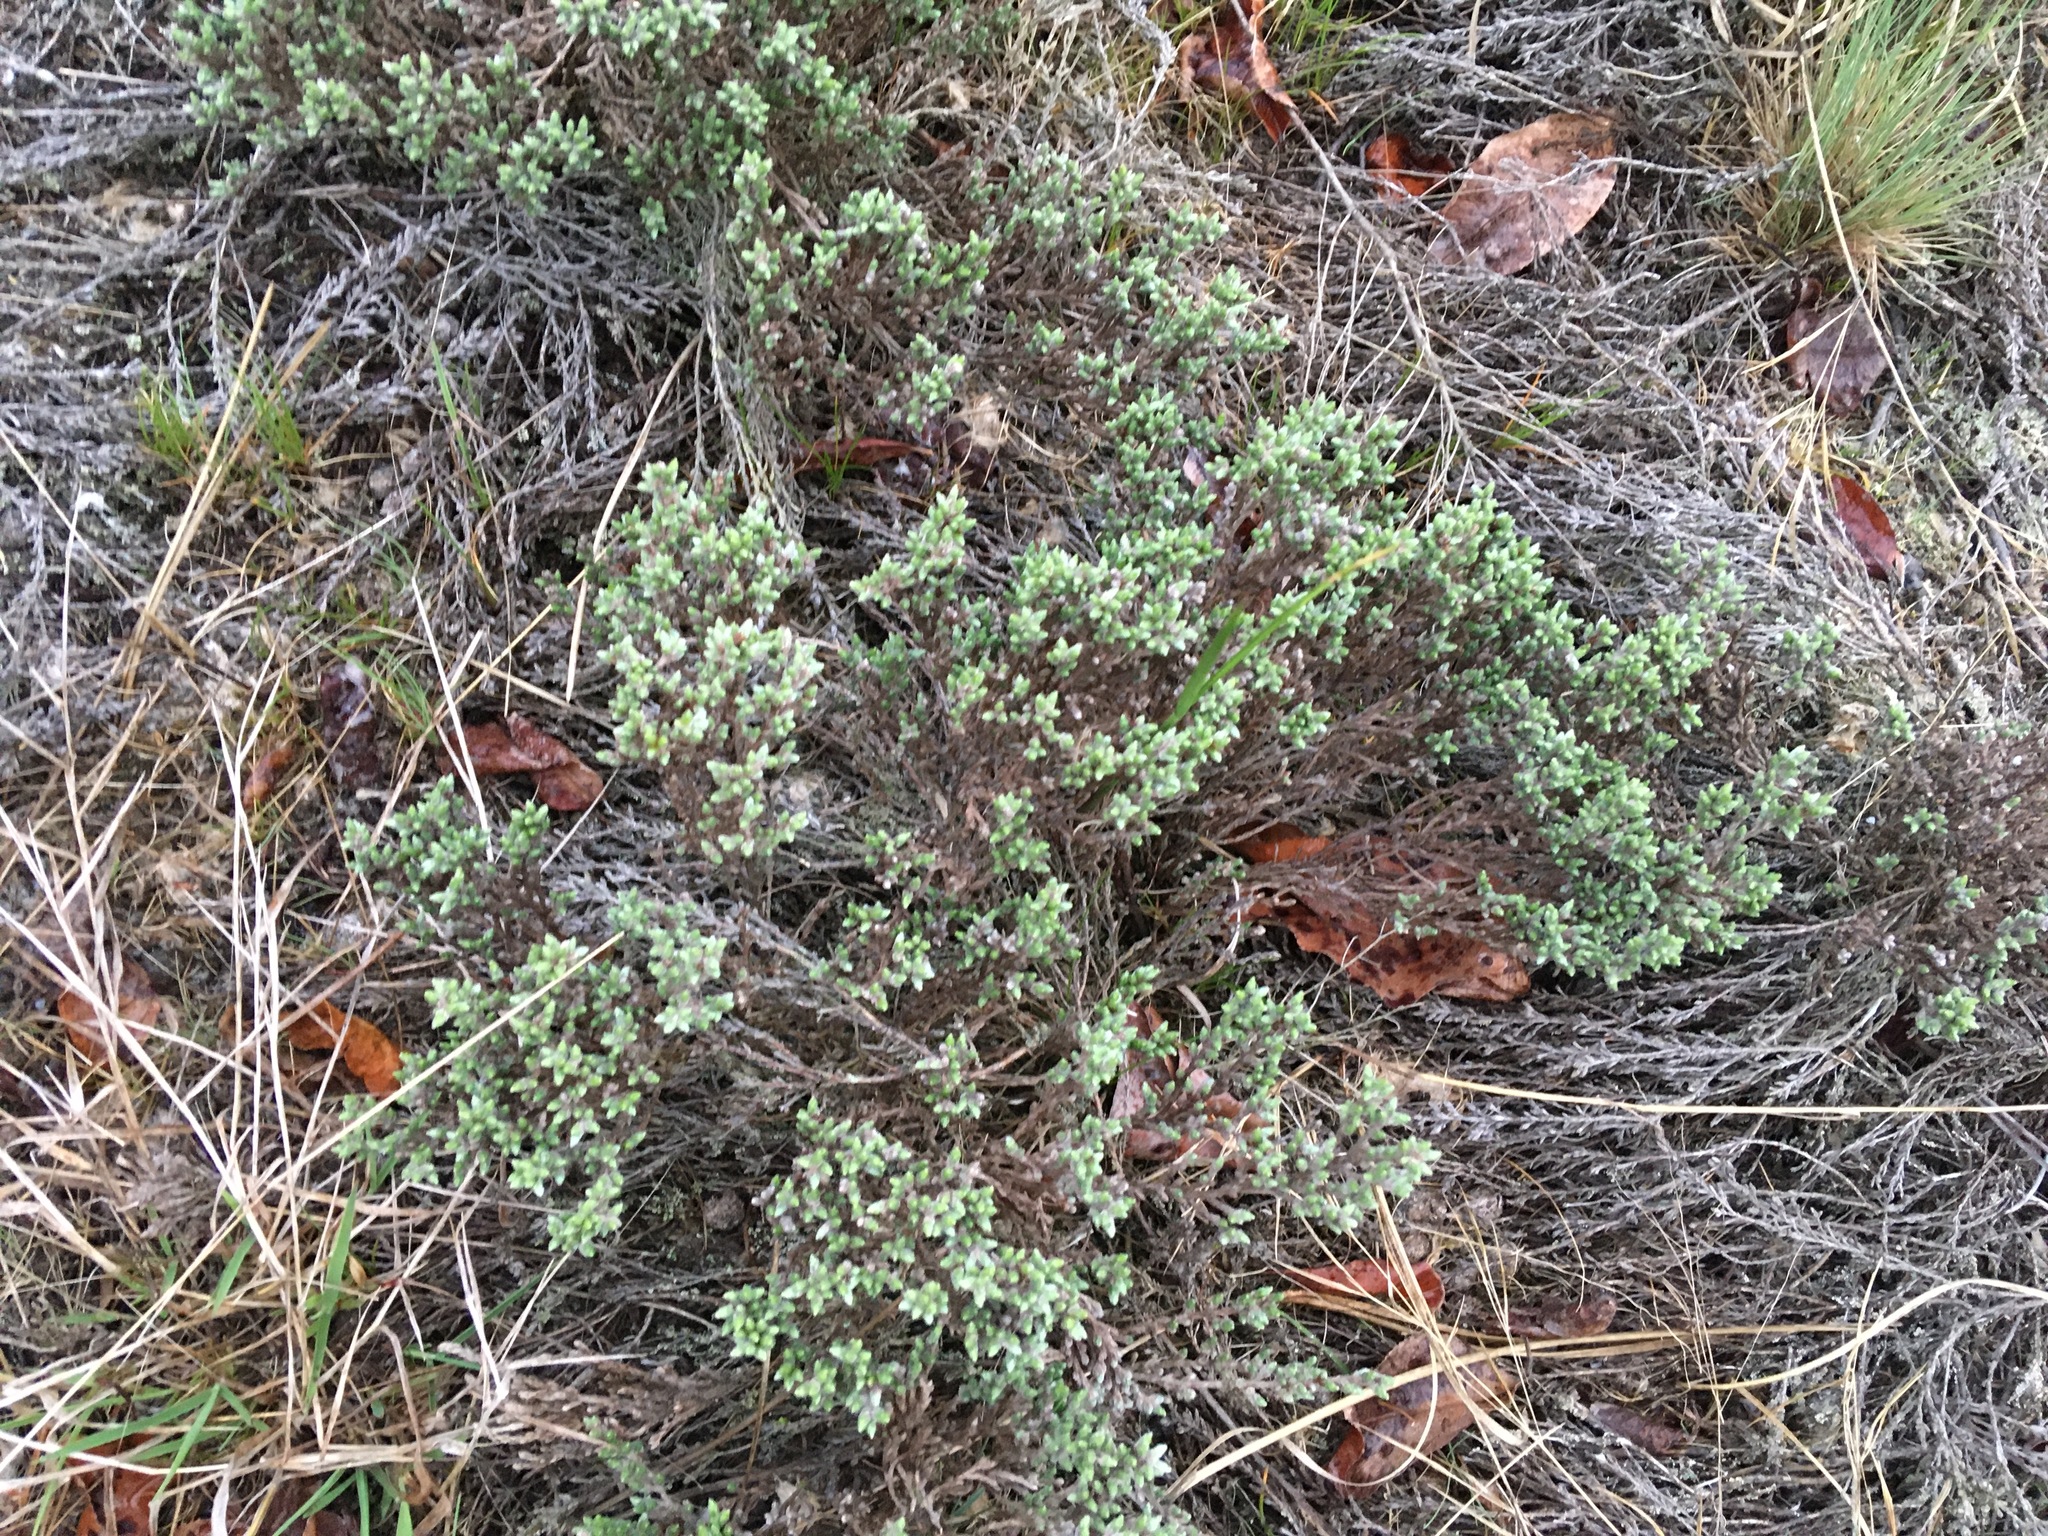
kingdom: Plantae
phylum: Tracheophyta
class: Magnoliopsida
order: Malvales
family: Cistaceae
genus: Hudsonia
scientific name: Hudsonia tomentosa
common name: Beach-heath
